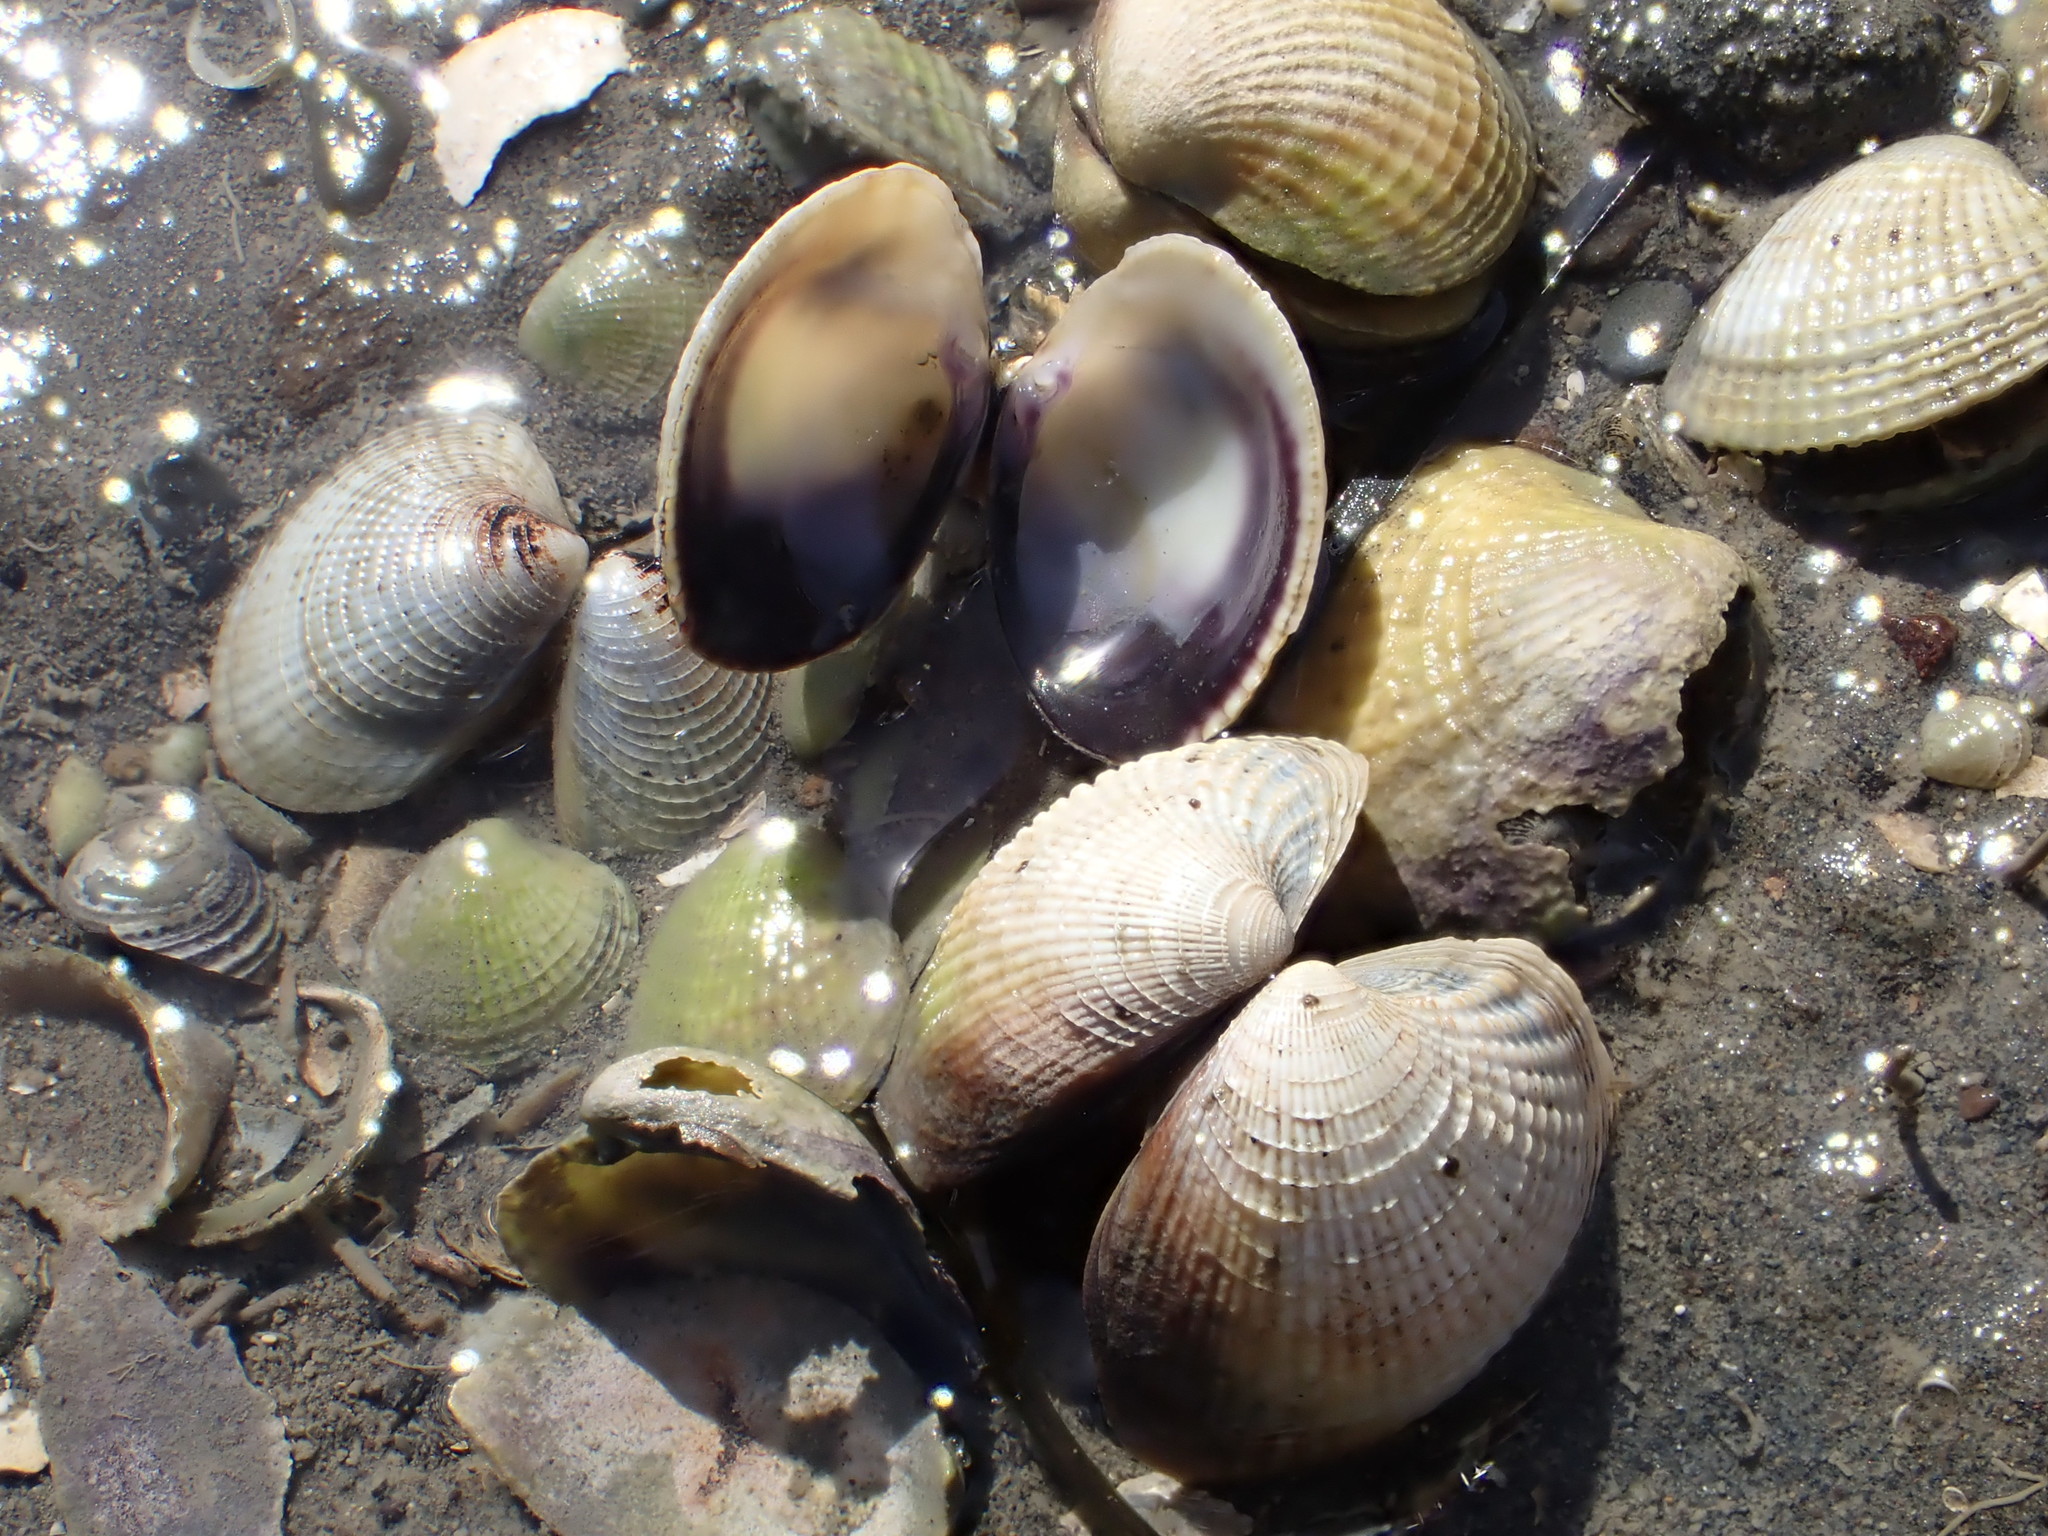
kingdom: Animalia
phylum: Mollusca
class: Bivalvia
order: Venerida
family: Veneridae
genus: Austrovenus
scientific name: Austrovenus stutchburyi
